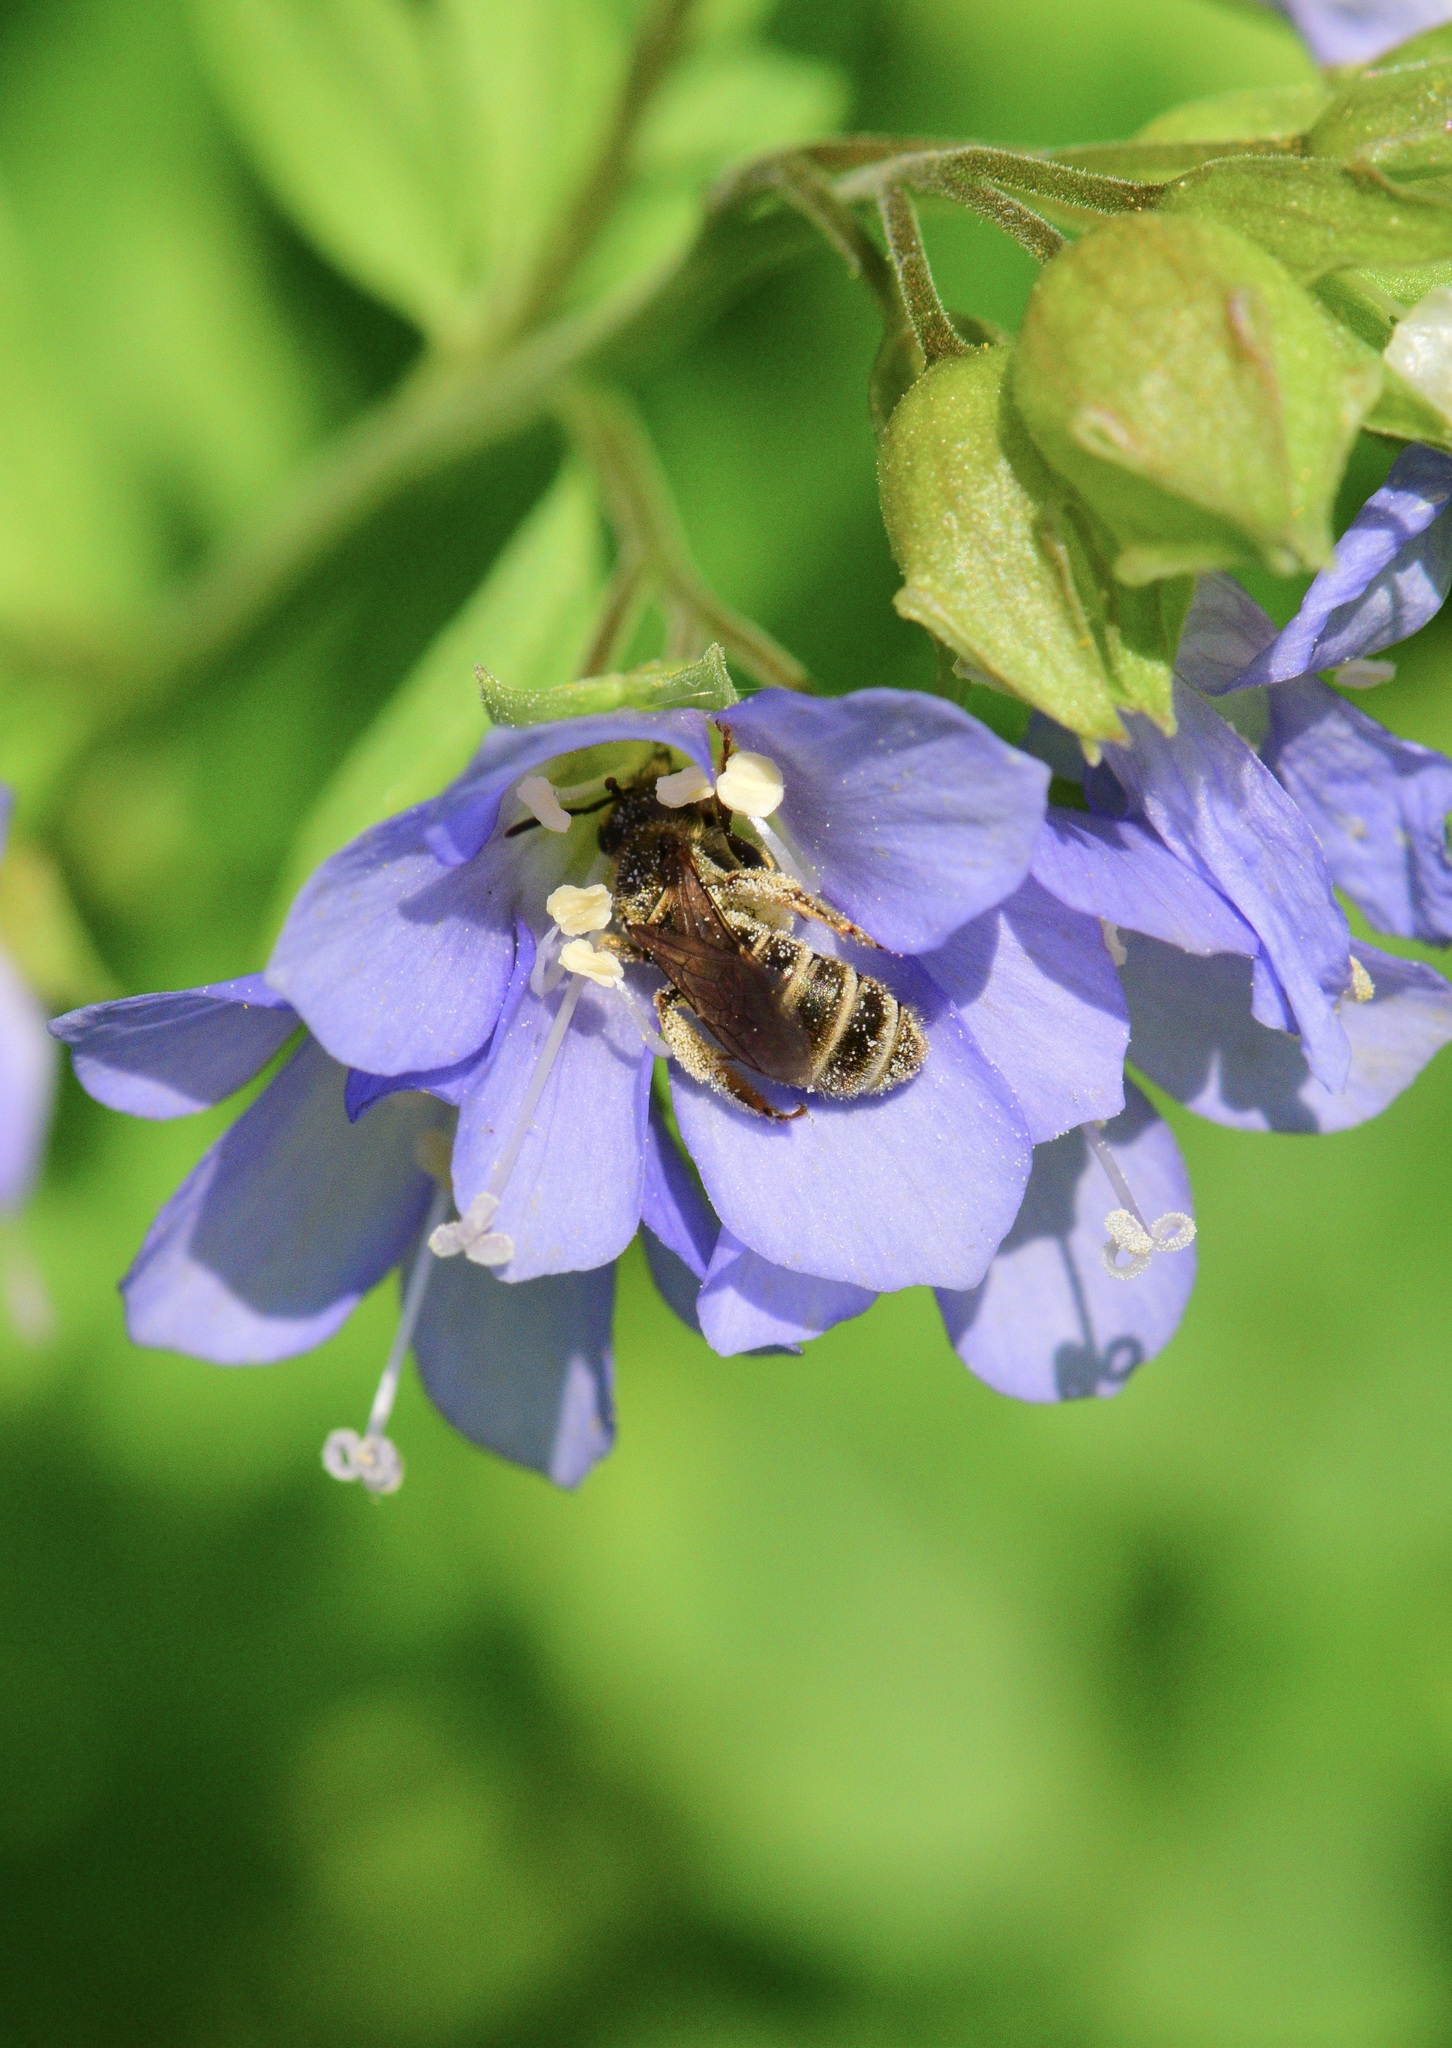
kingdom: Animalia
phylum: Arthropoda
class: Insecta
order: Hymenoptera
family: Halictidae
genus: Halictus
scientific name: Halictus confusus
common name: Southern bronze furrow bee
